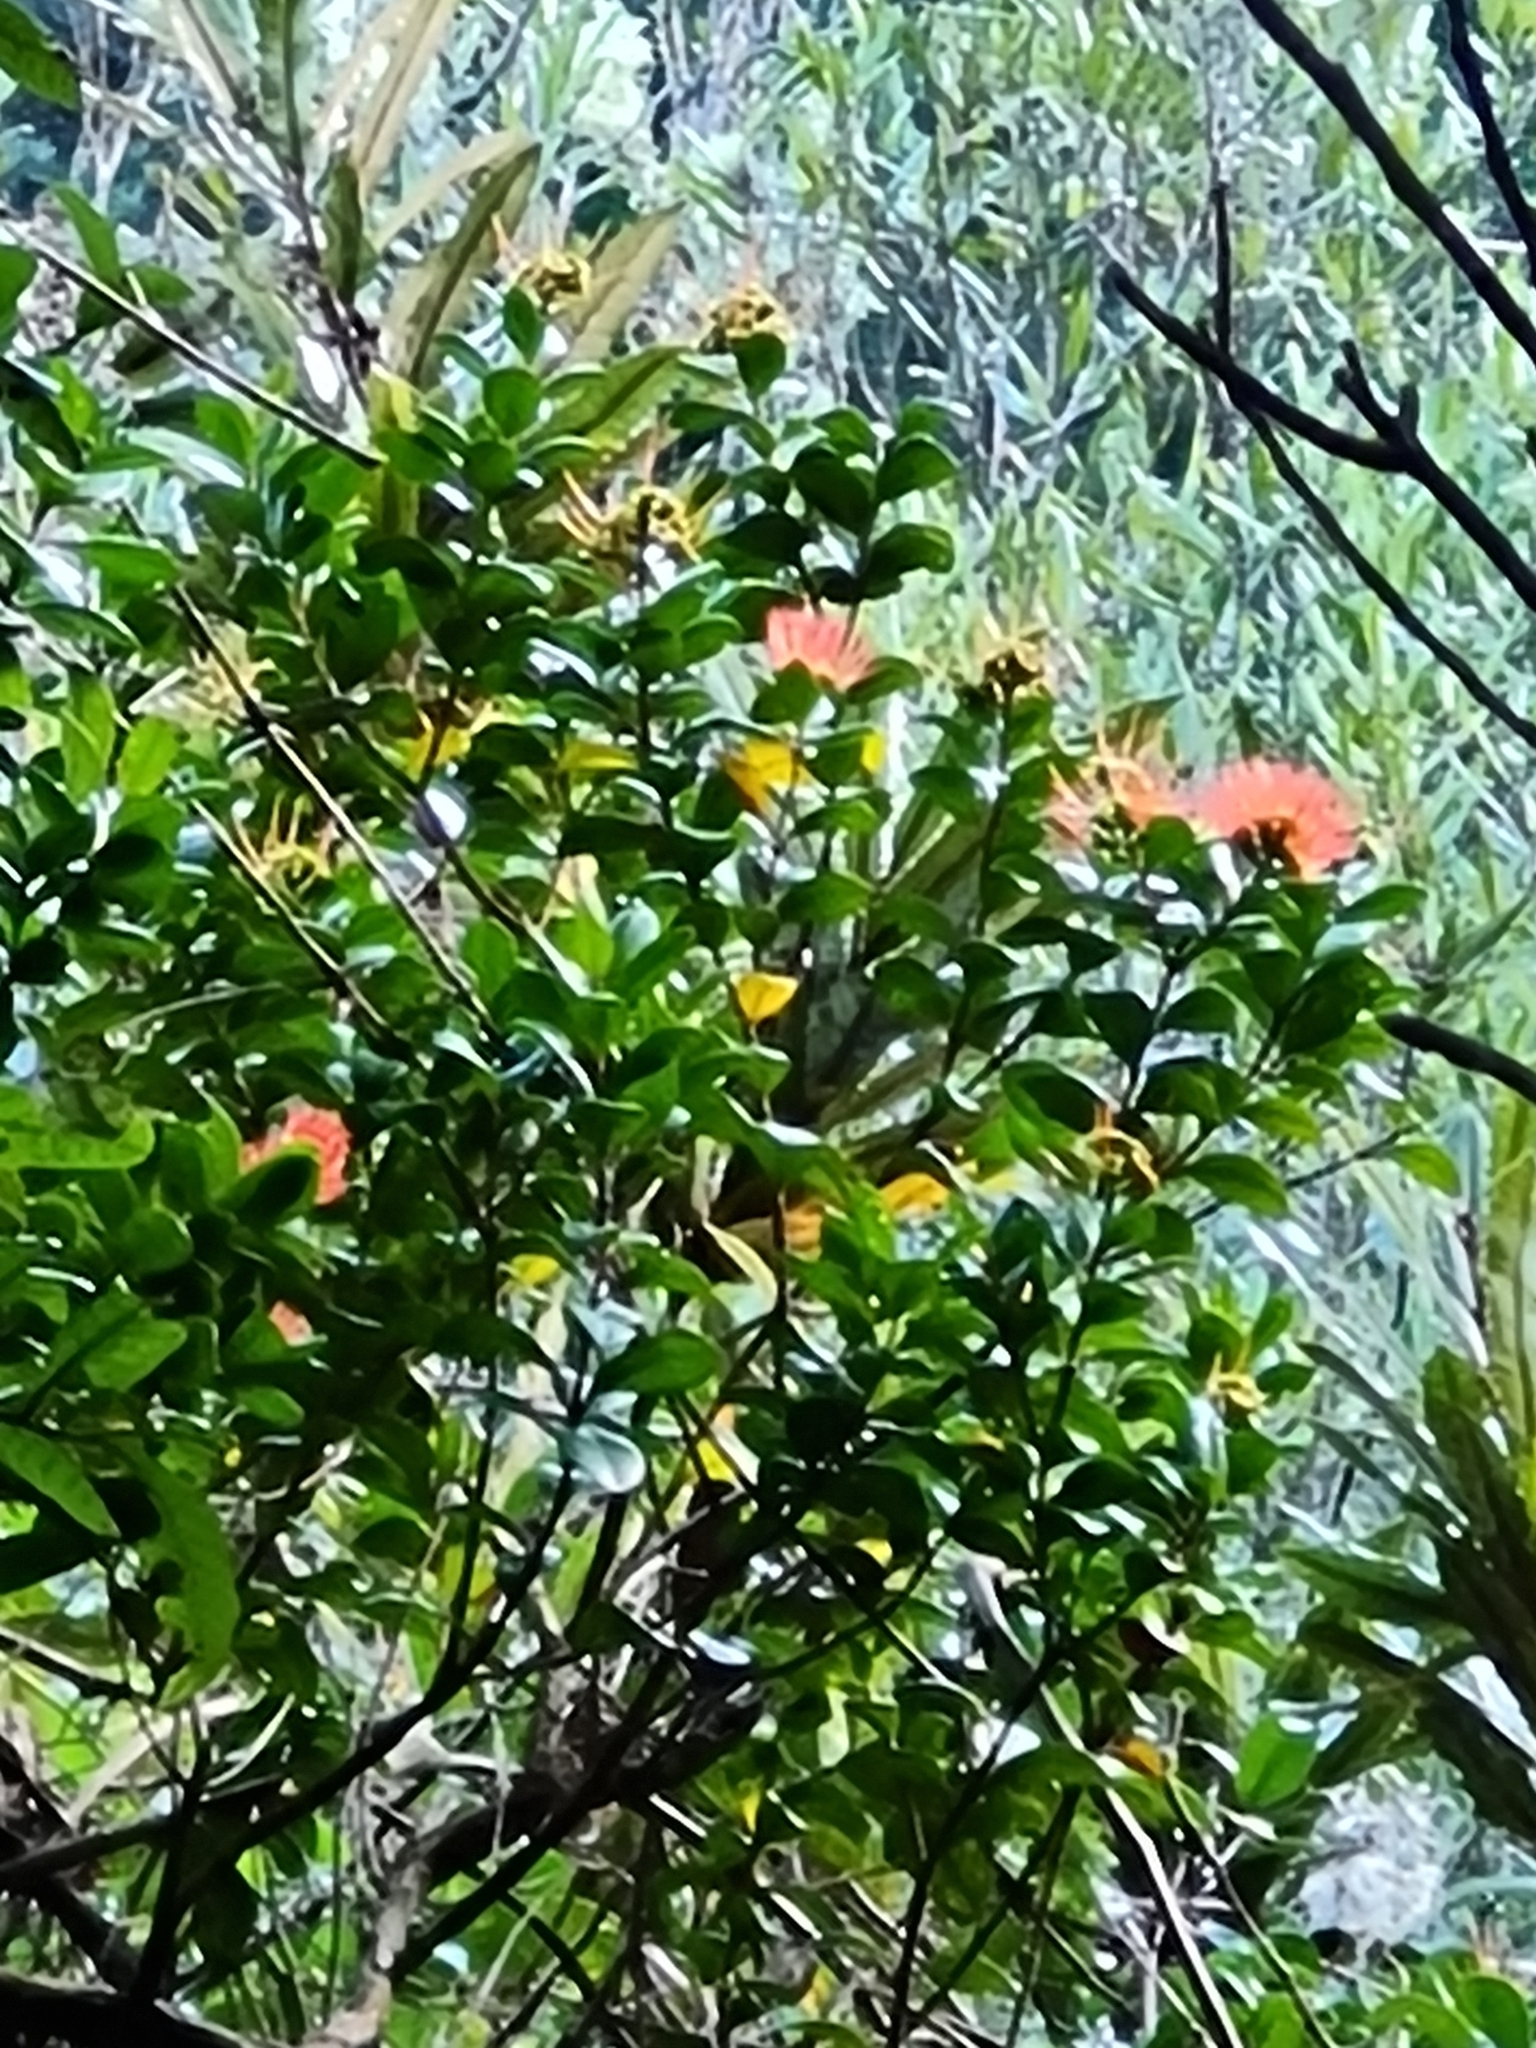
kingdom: Plantae
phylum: Tracheophyta
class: Magnoliopsida
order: Myrtales
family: Myrtaceae
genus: Metrosideros
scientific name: Metrosideros fulgens
